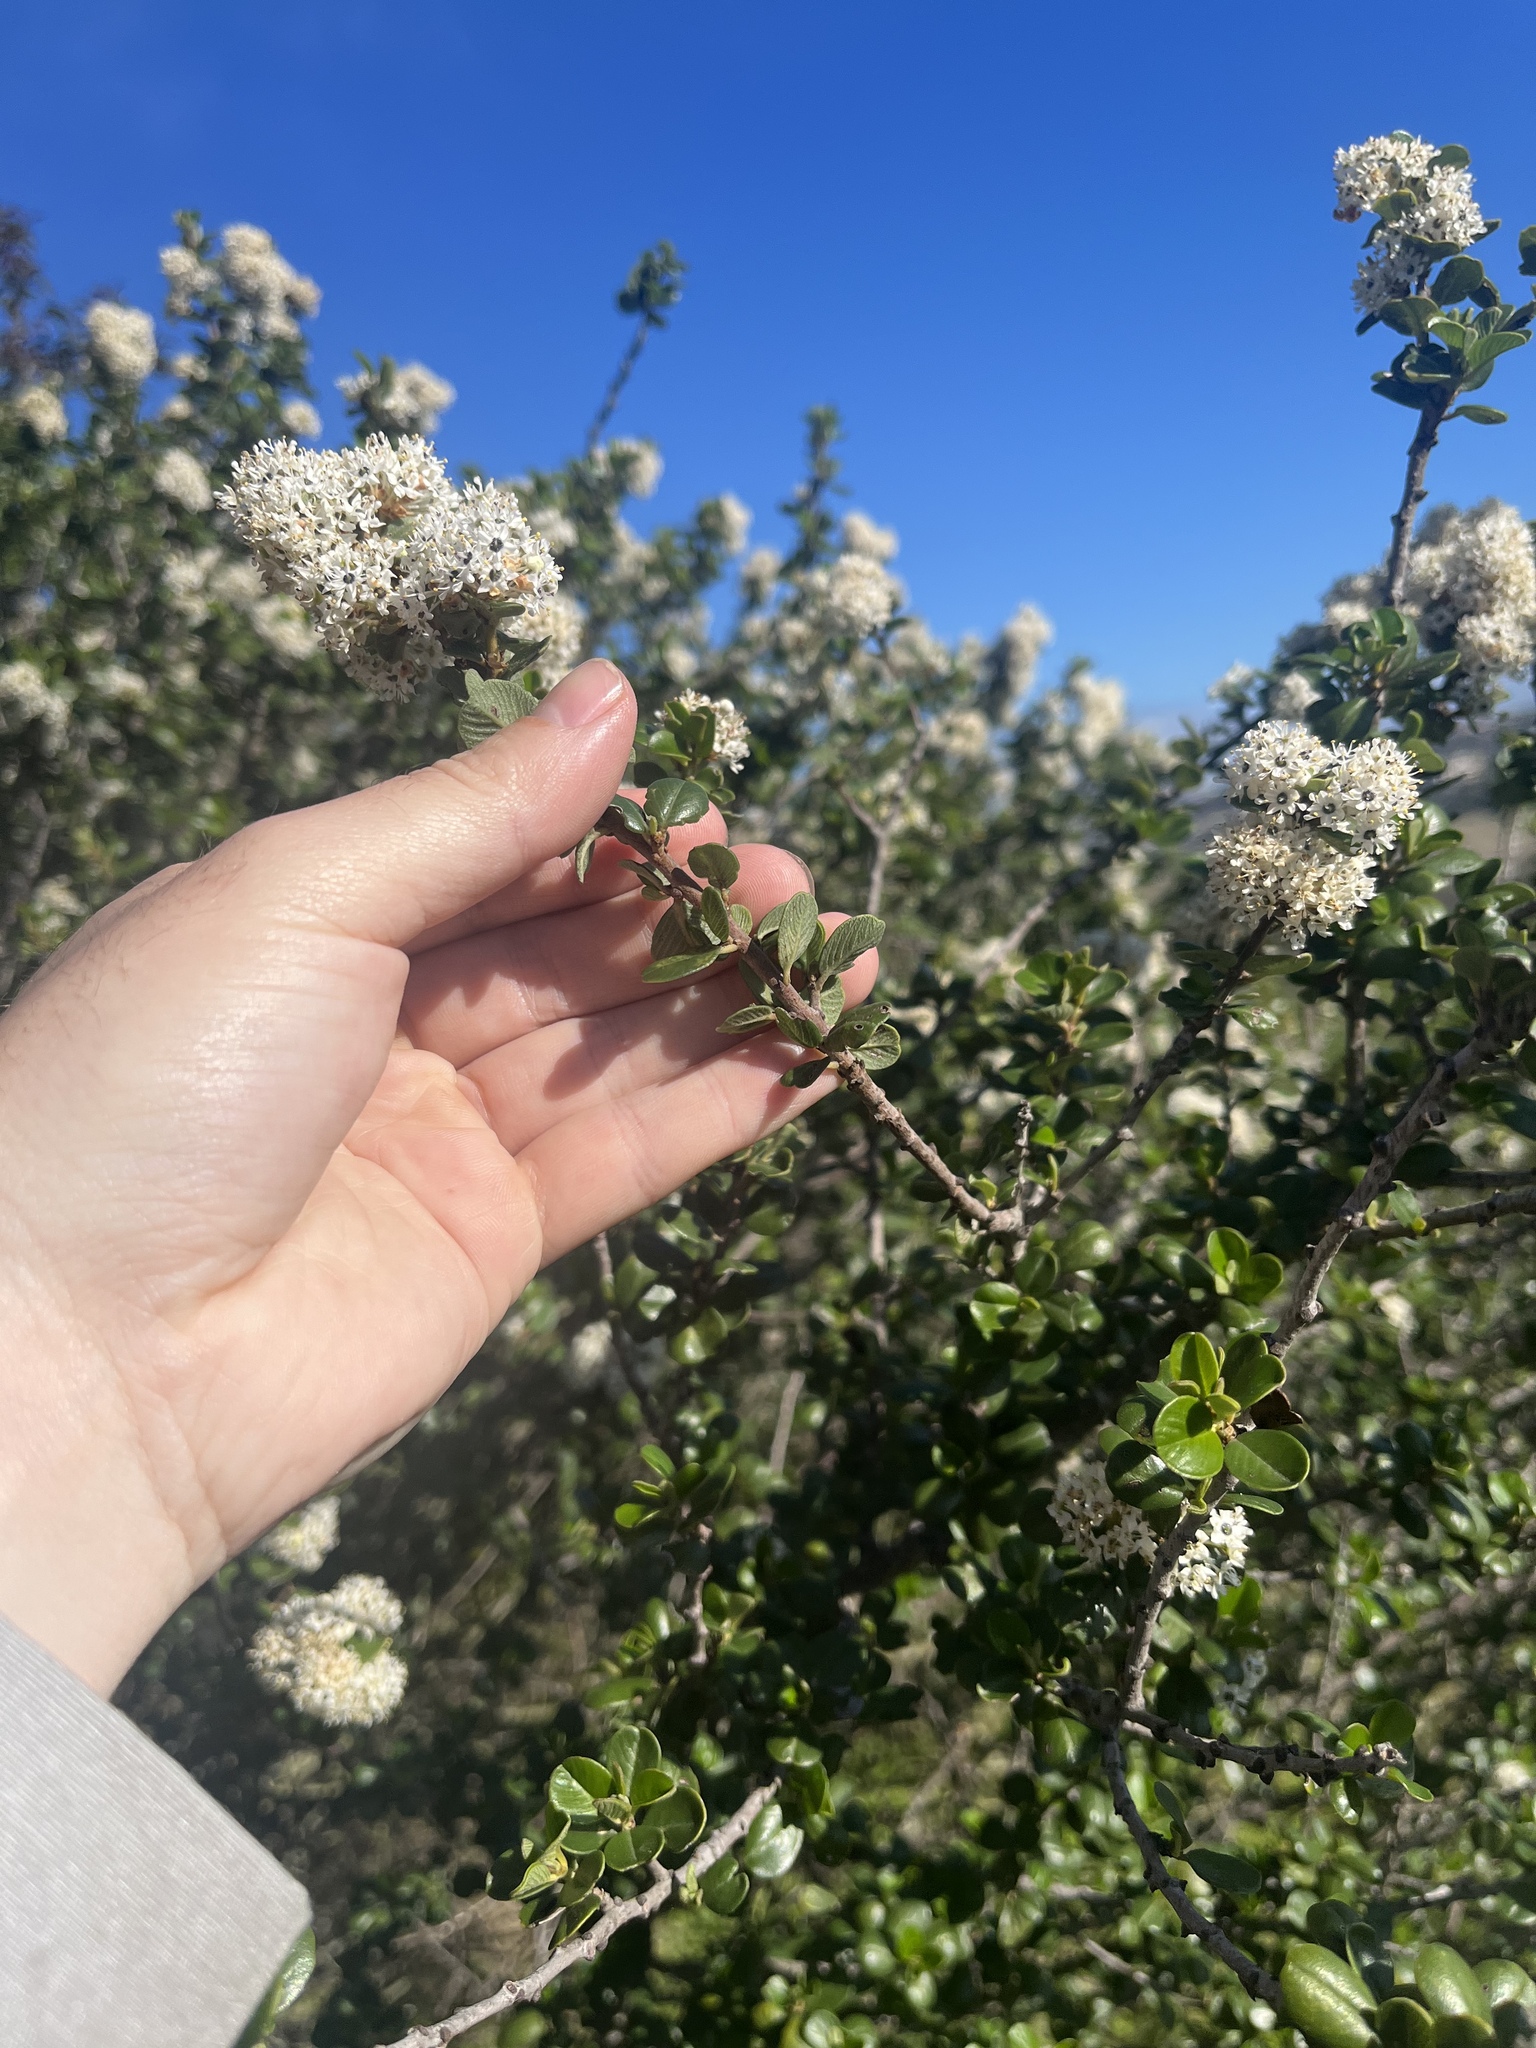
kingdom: Plantae
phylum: Tracheophyta
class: Magnoliopsida
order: Rosales
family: Rhamnaceae
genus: Ceanothus
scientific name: Ceanothus verrucosus
